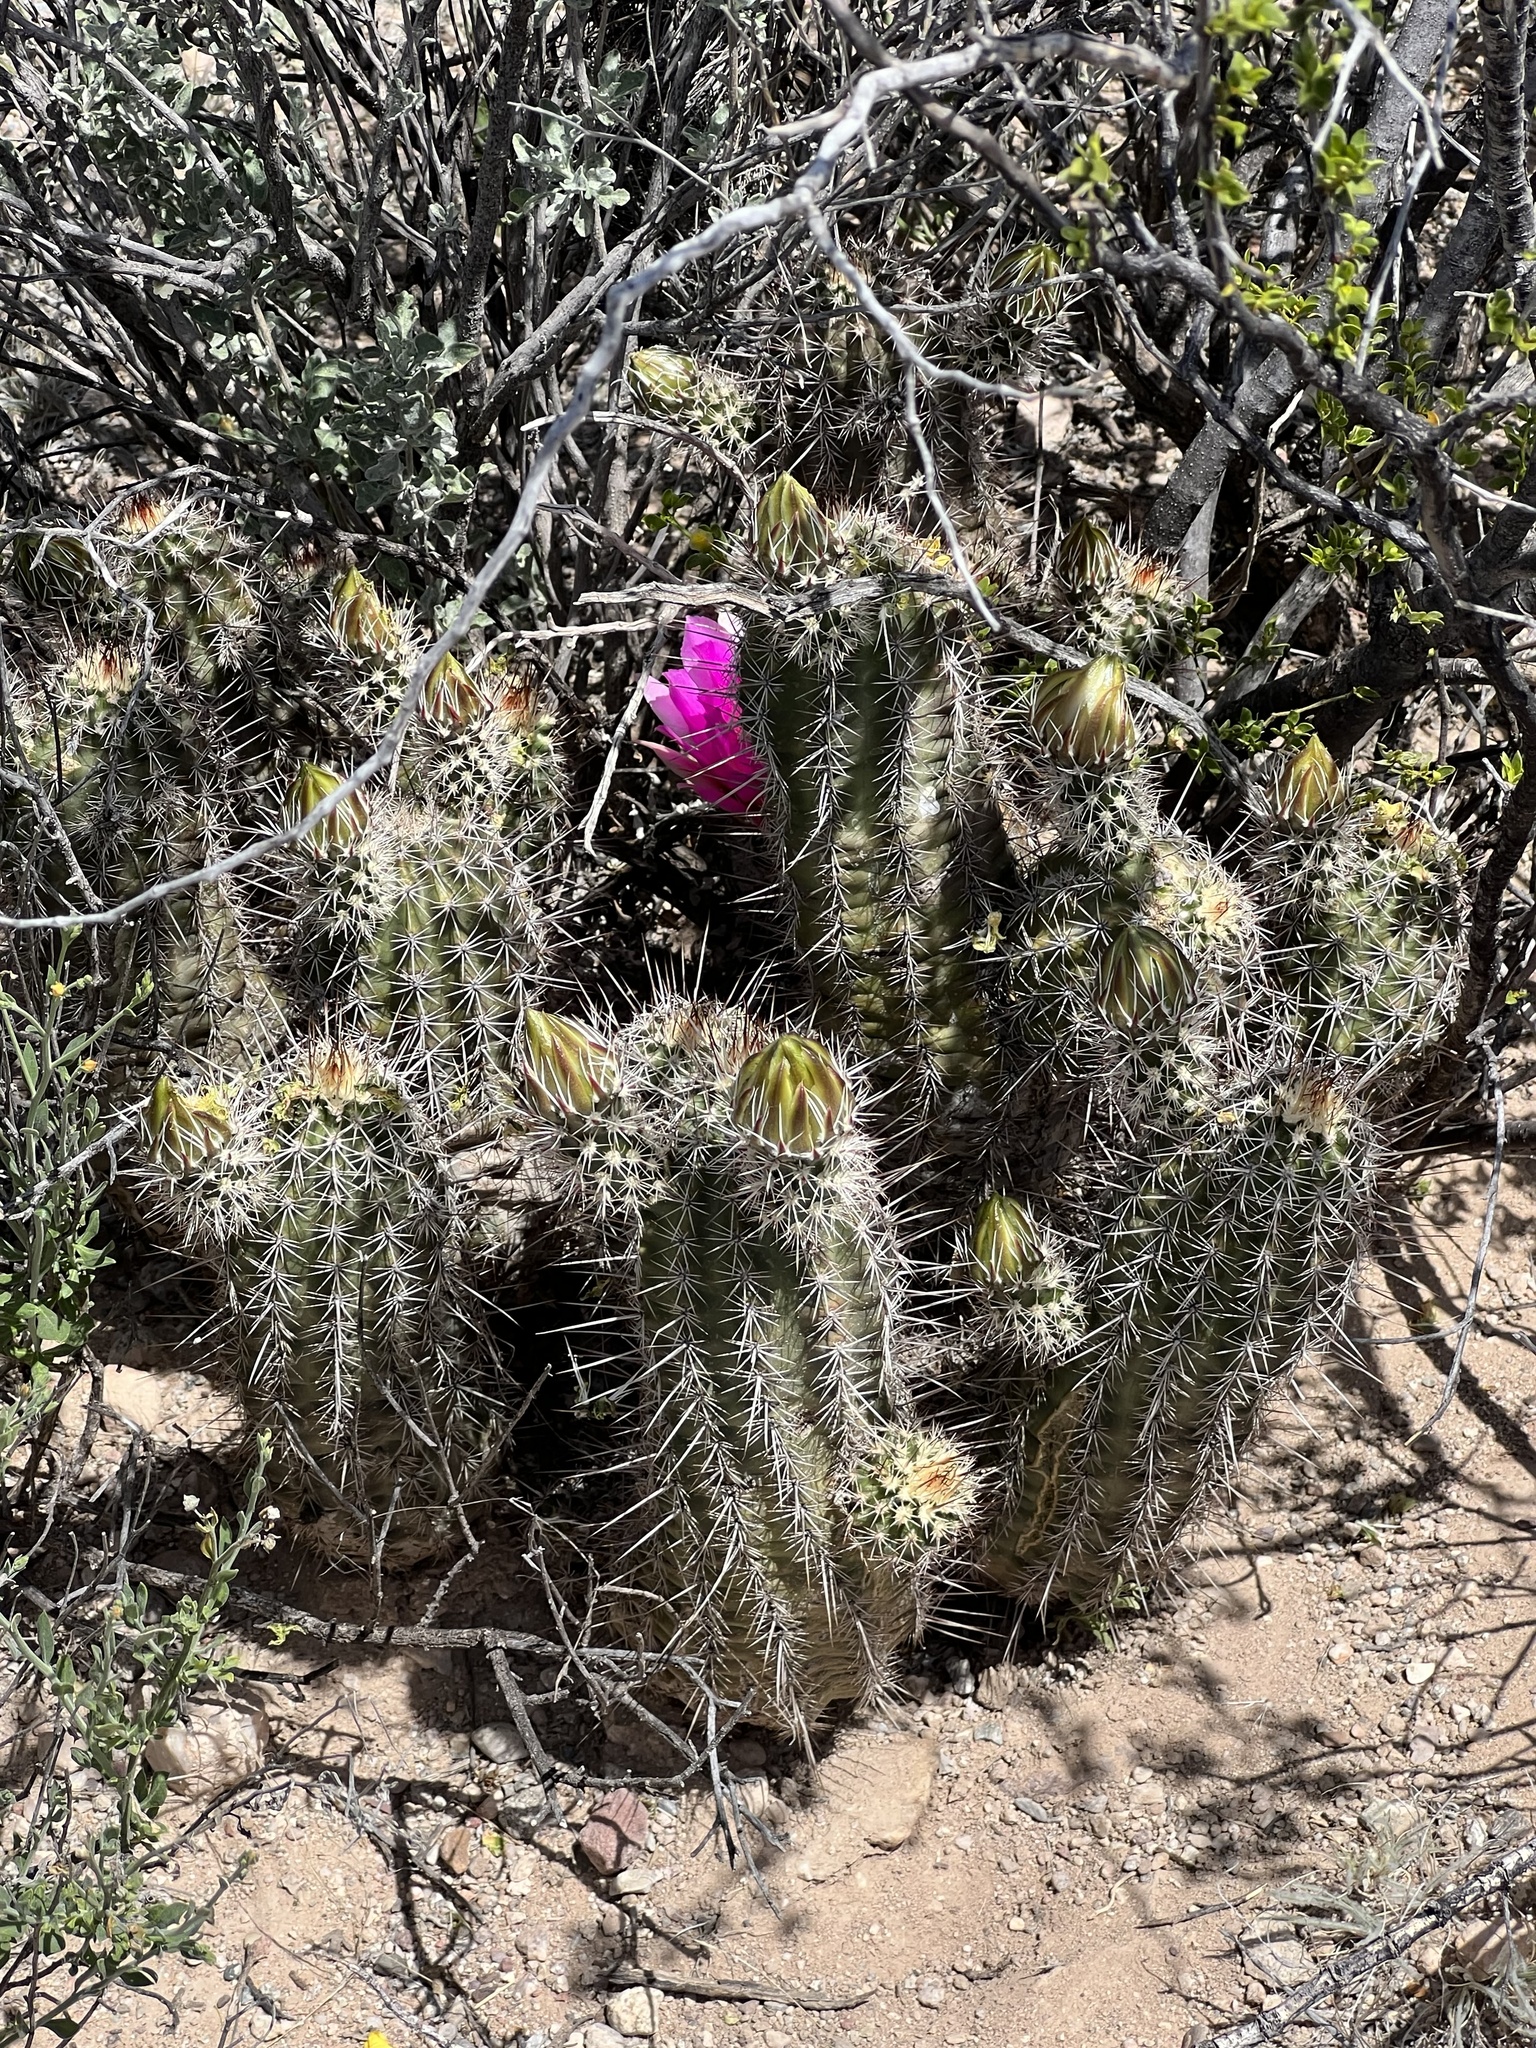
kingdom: Plantae
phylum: Tracheophyta
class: Magnoliopsida
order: Caryophyllales
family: Cactaceae
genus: Echinocereus
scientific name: Echinocereus fasciculatus
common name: Bundle hedgehog
